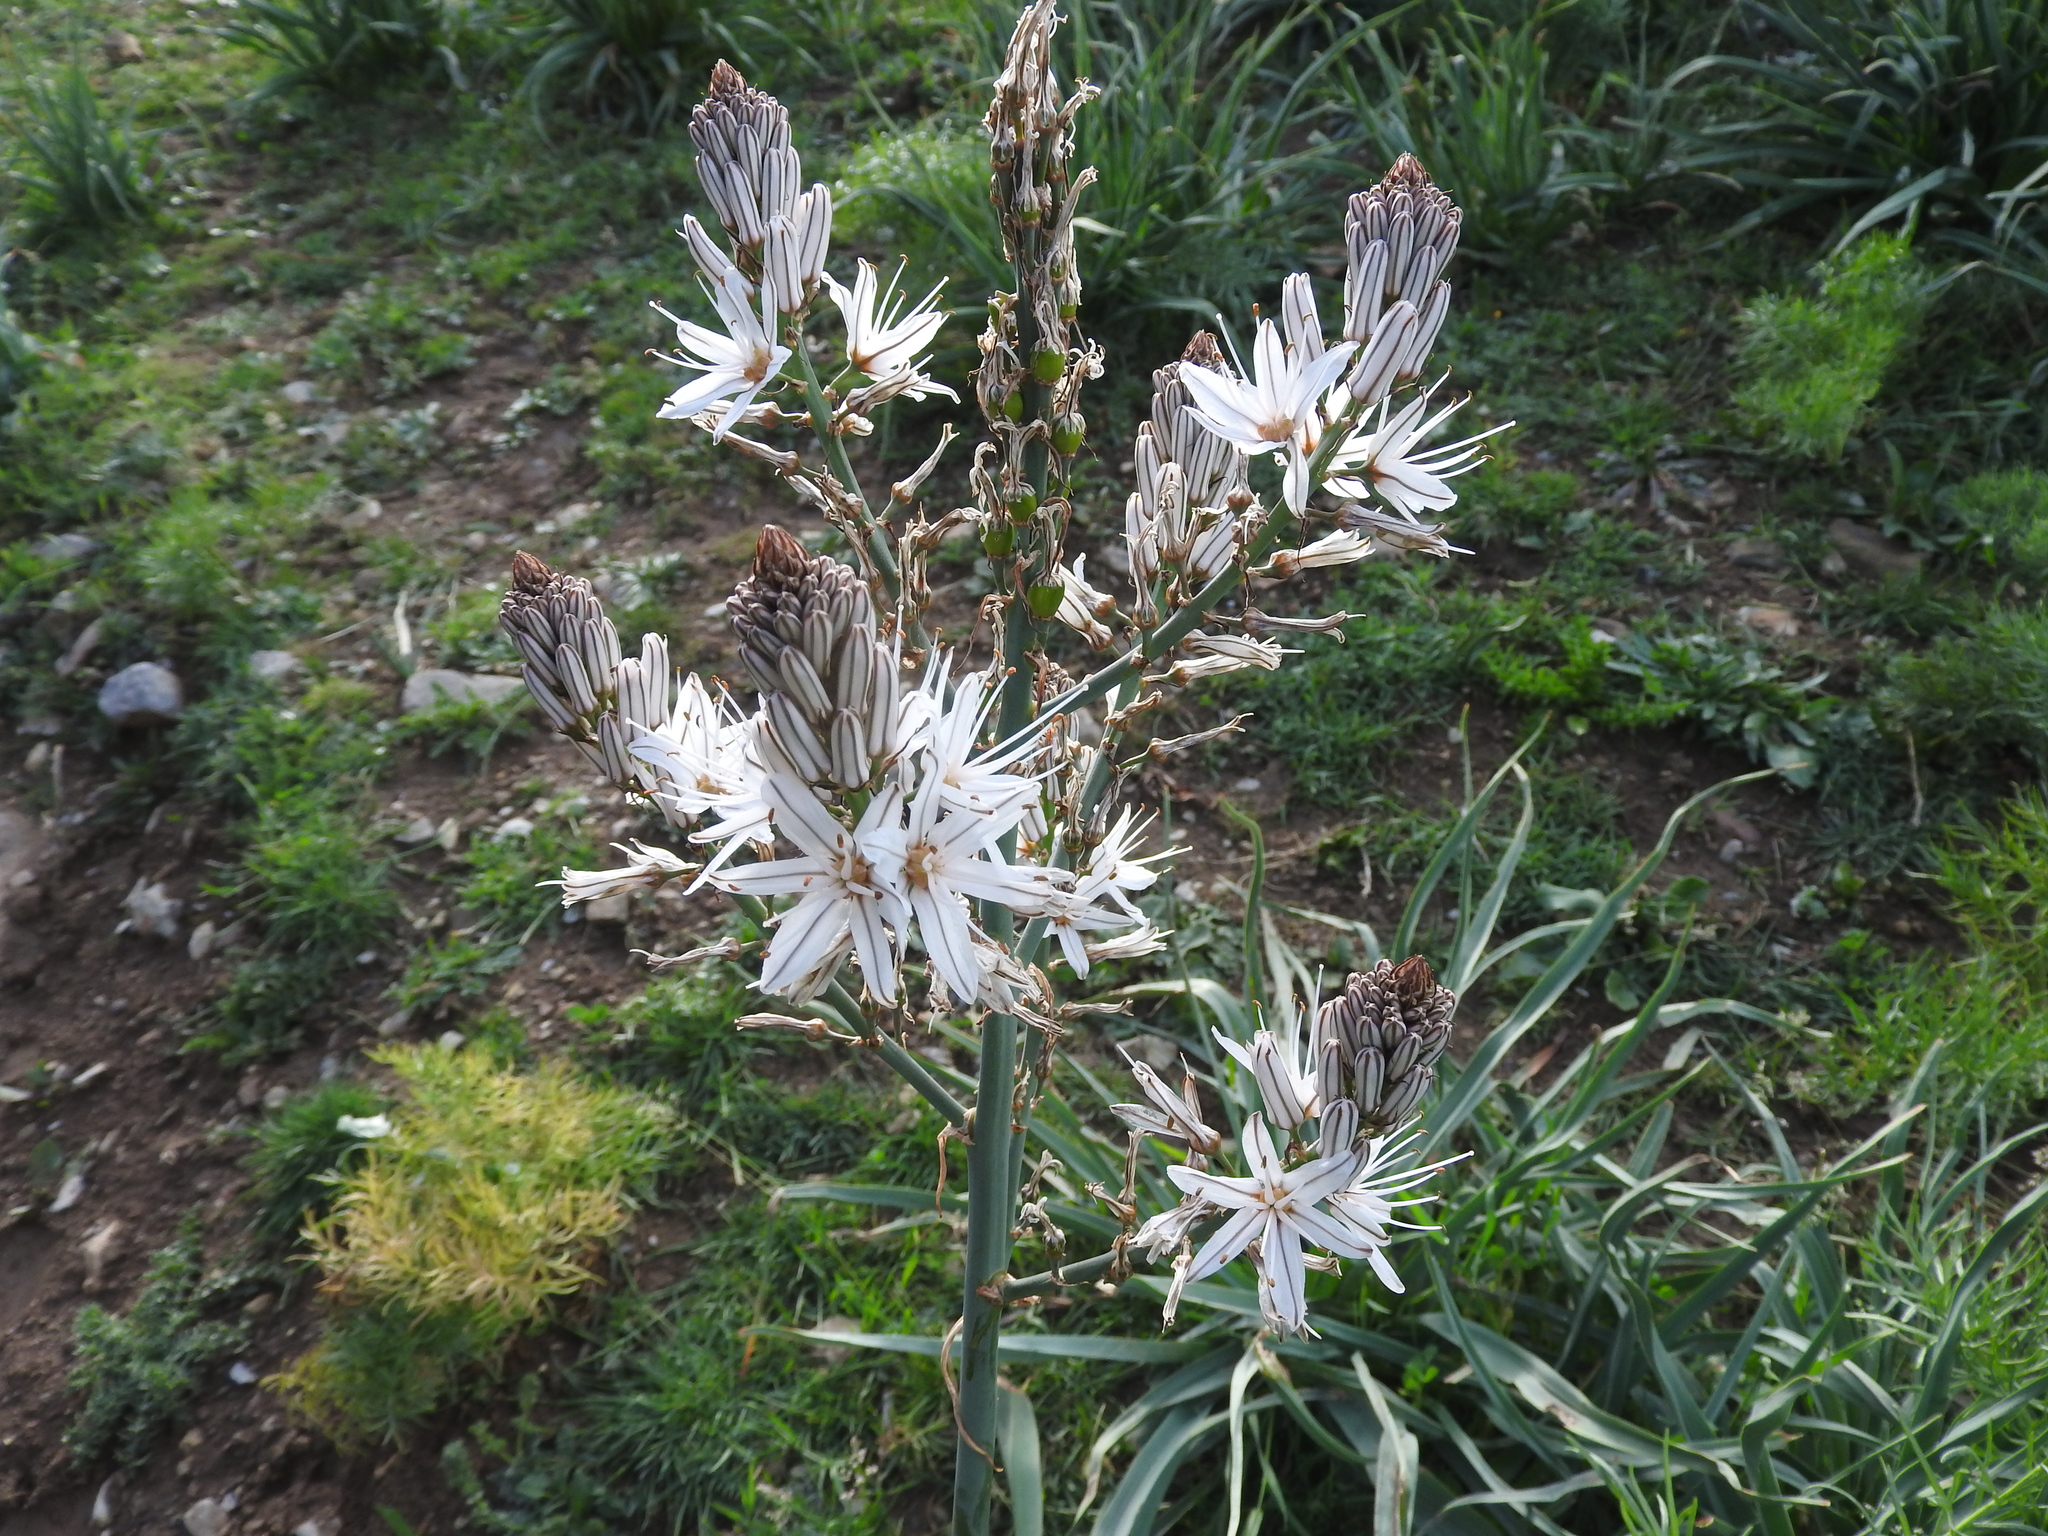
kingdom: Plantae
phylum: Tracheophyta
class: Liliopsida
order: Asparagales
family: Asphodelaceae
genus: Asphodelus
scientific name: Asphodelus ramosus
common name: Silverrod
